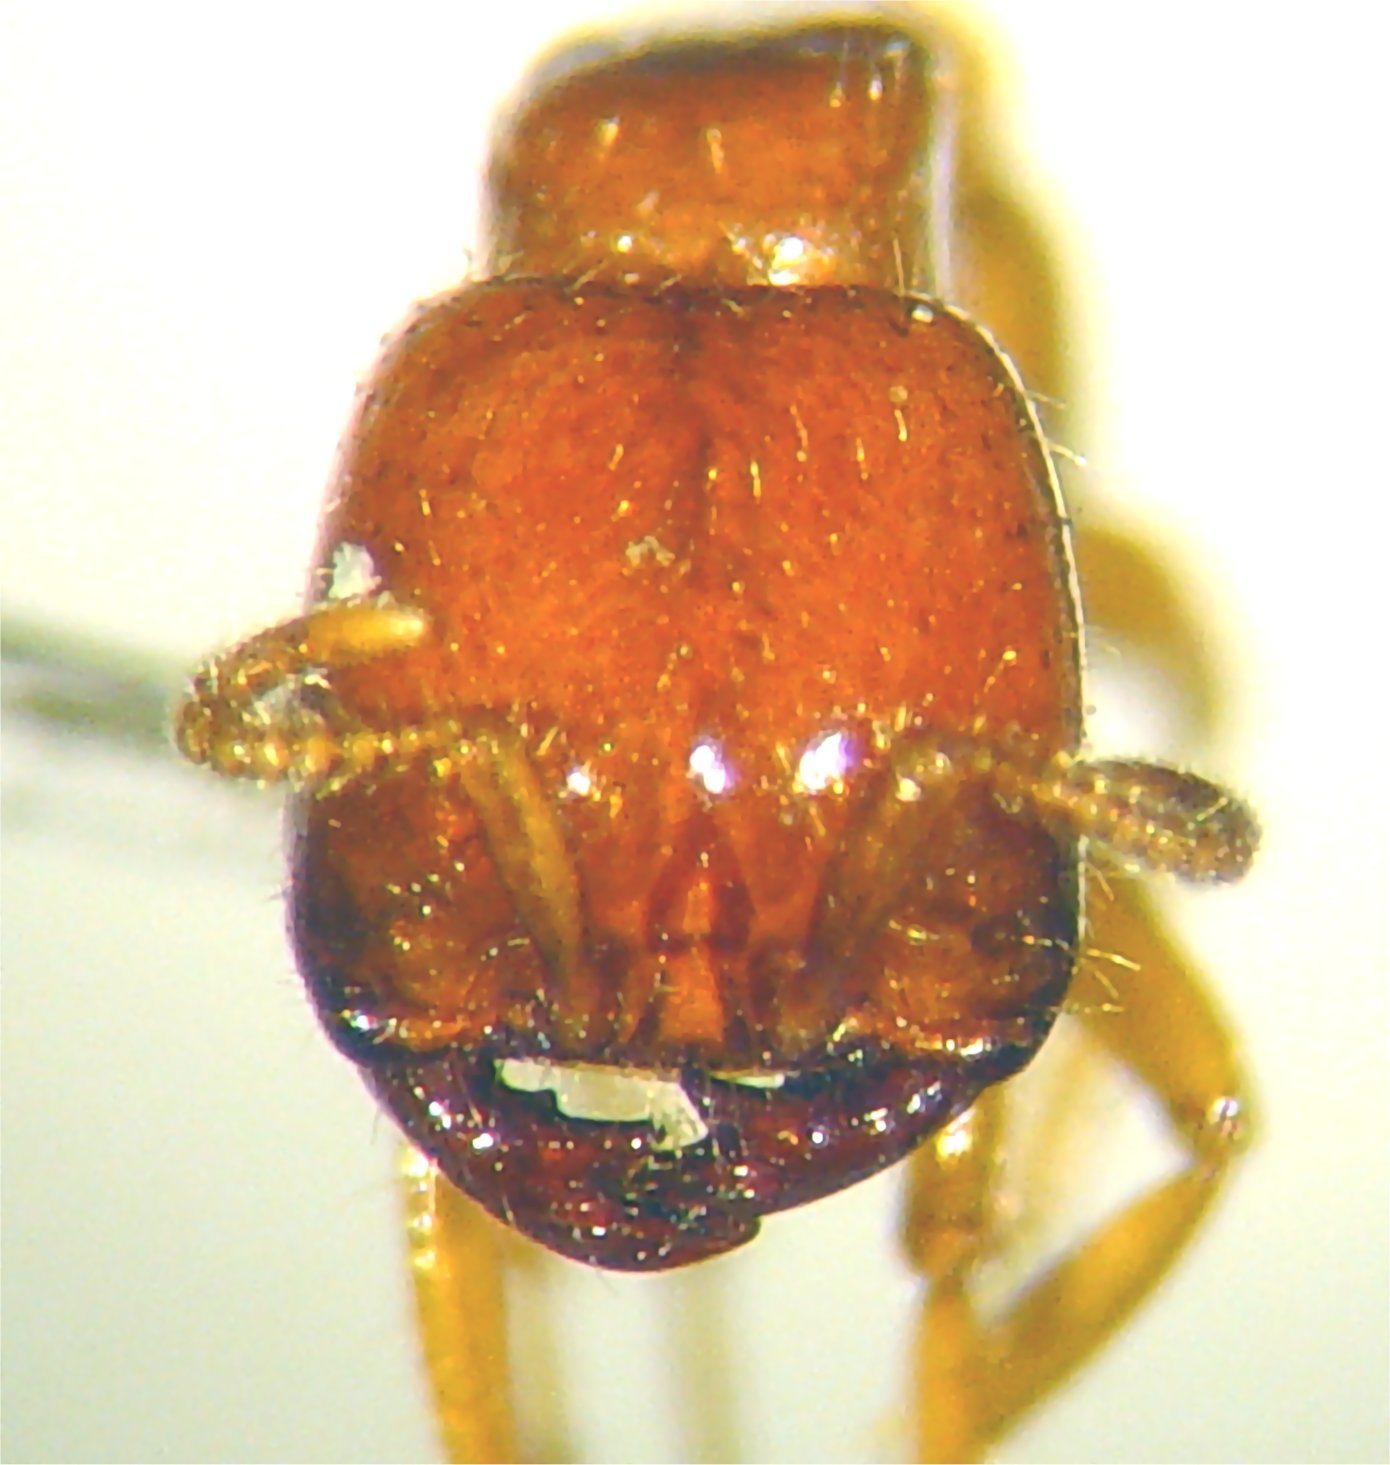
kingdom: Animalia
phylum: Arthropoda
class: Insecta
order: Hymenoptera
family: Formicidae
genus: Labidus
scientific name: Labidus mars
